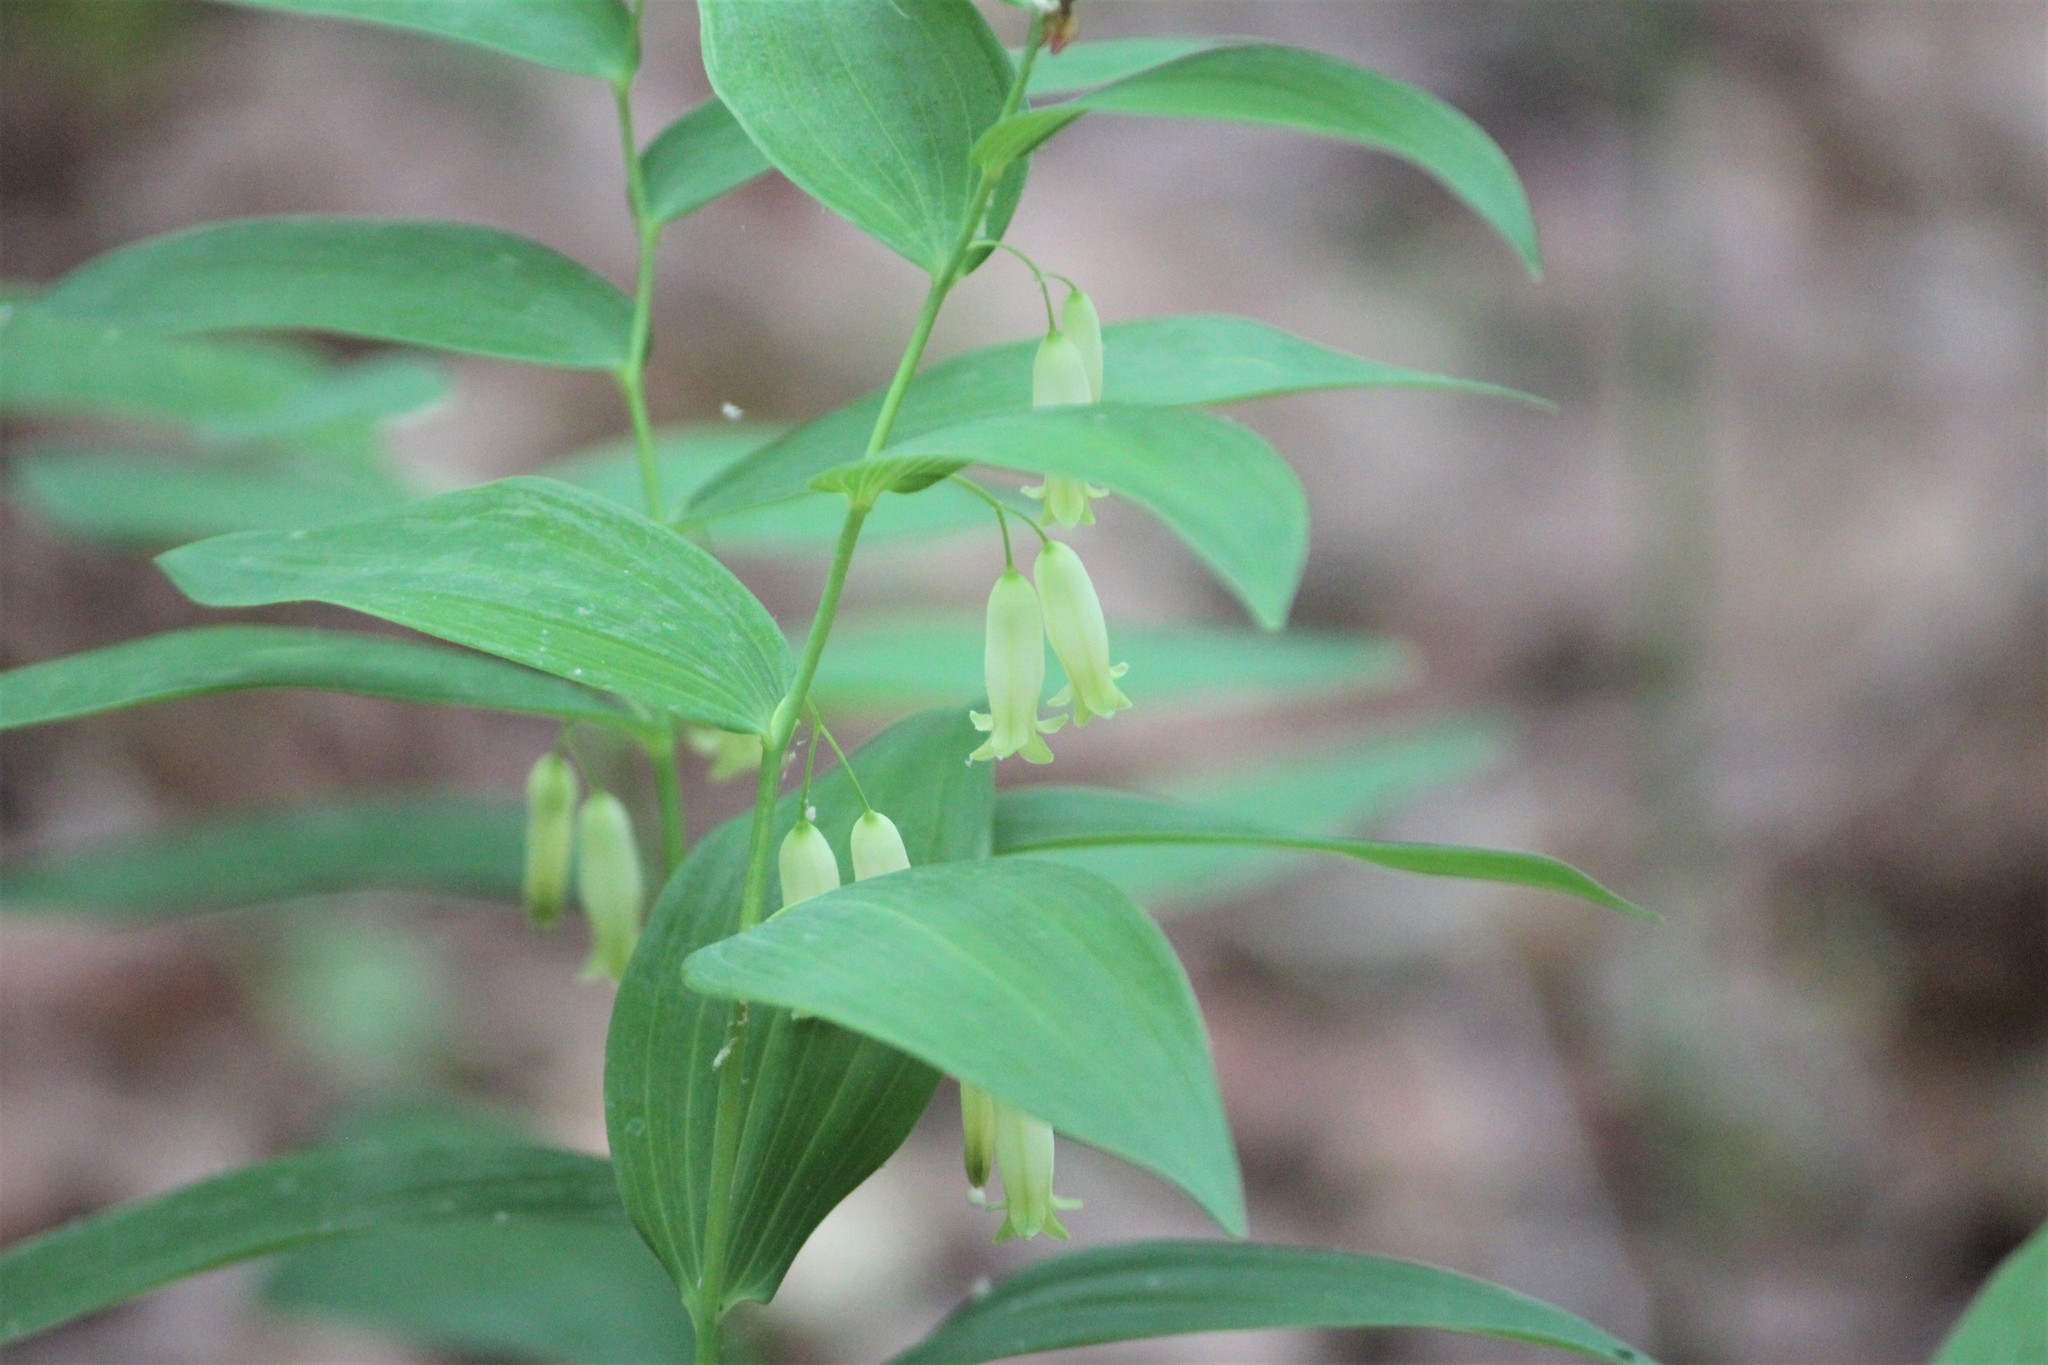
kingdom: Plantae
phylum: Tracheophyta
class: Liliopsida
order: Asparagales
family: Asparagaceae
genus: Polygonatum
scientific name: Polygonatum biflorum
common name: American solomon's-seal
